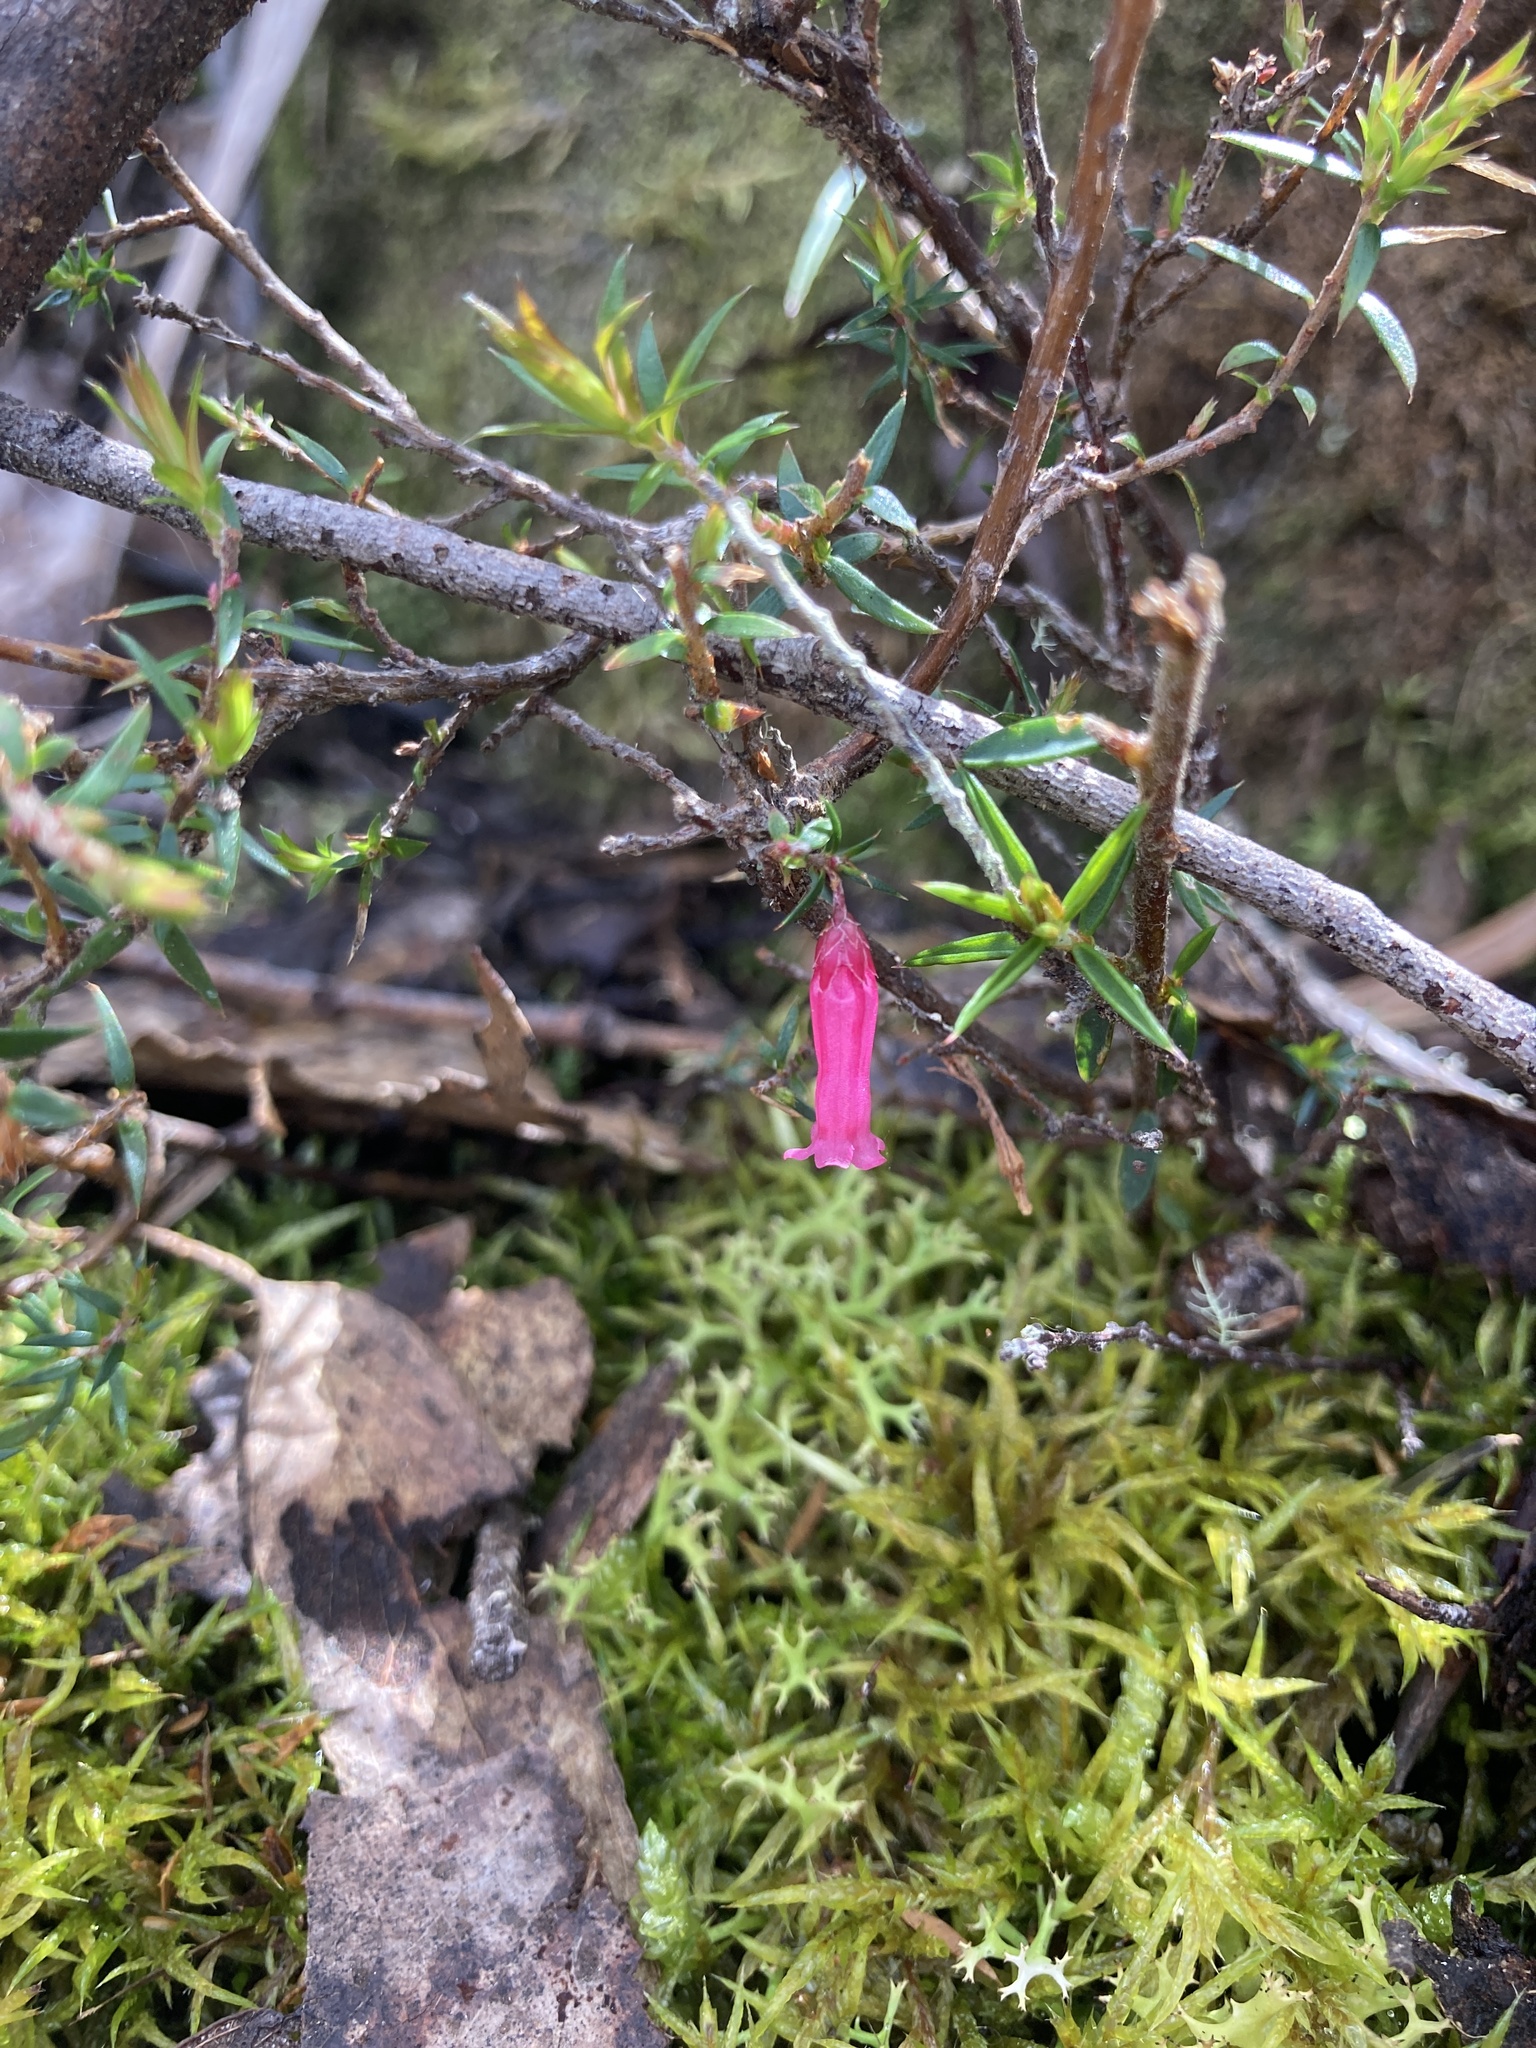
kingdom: Plantae
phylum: Tracheophyta
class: Magnoliopsida
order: Ericales
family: Ericaceae
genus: Epacris
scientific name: Epacris impressa
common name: Common-heath
